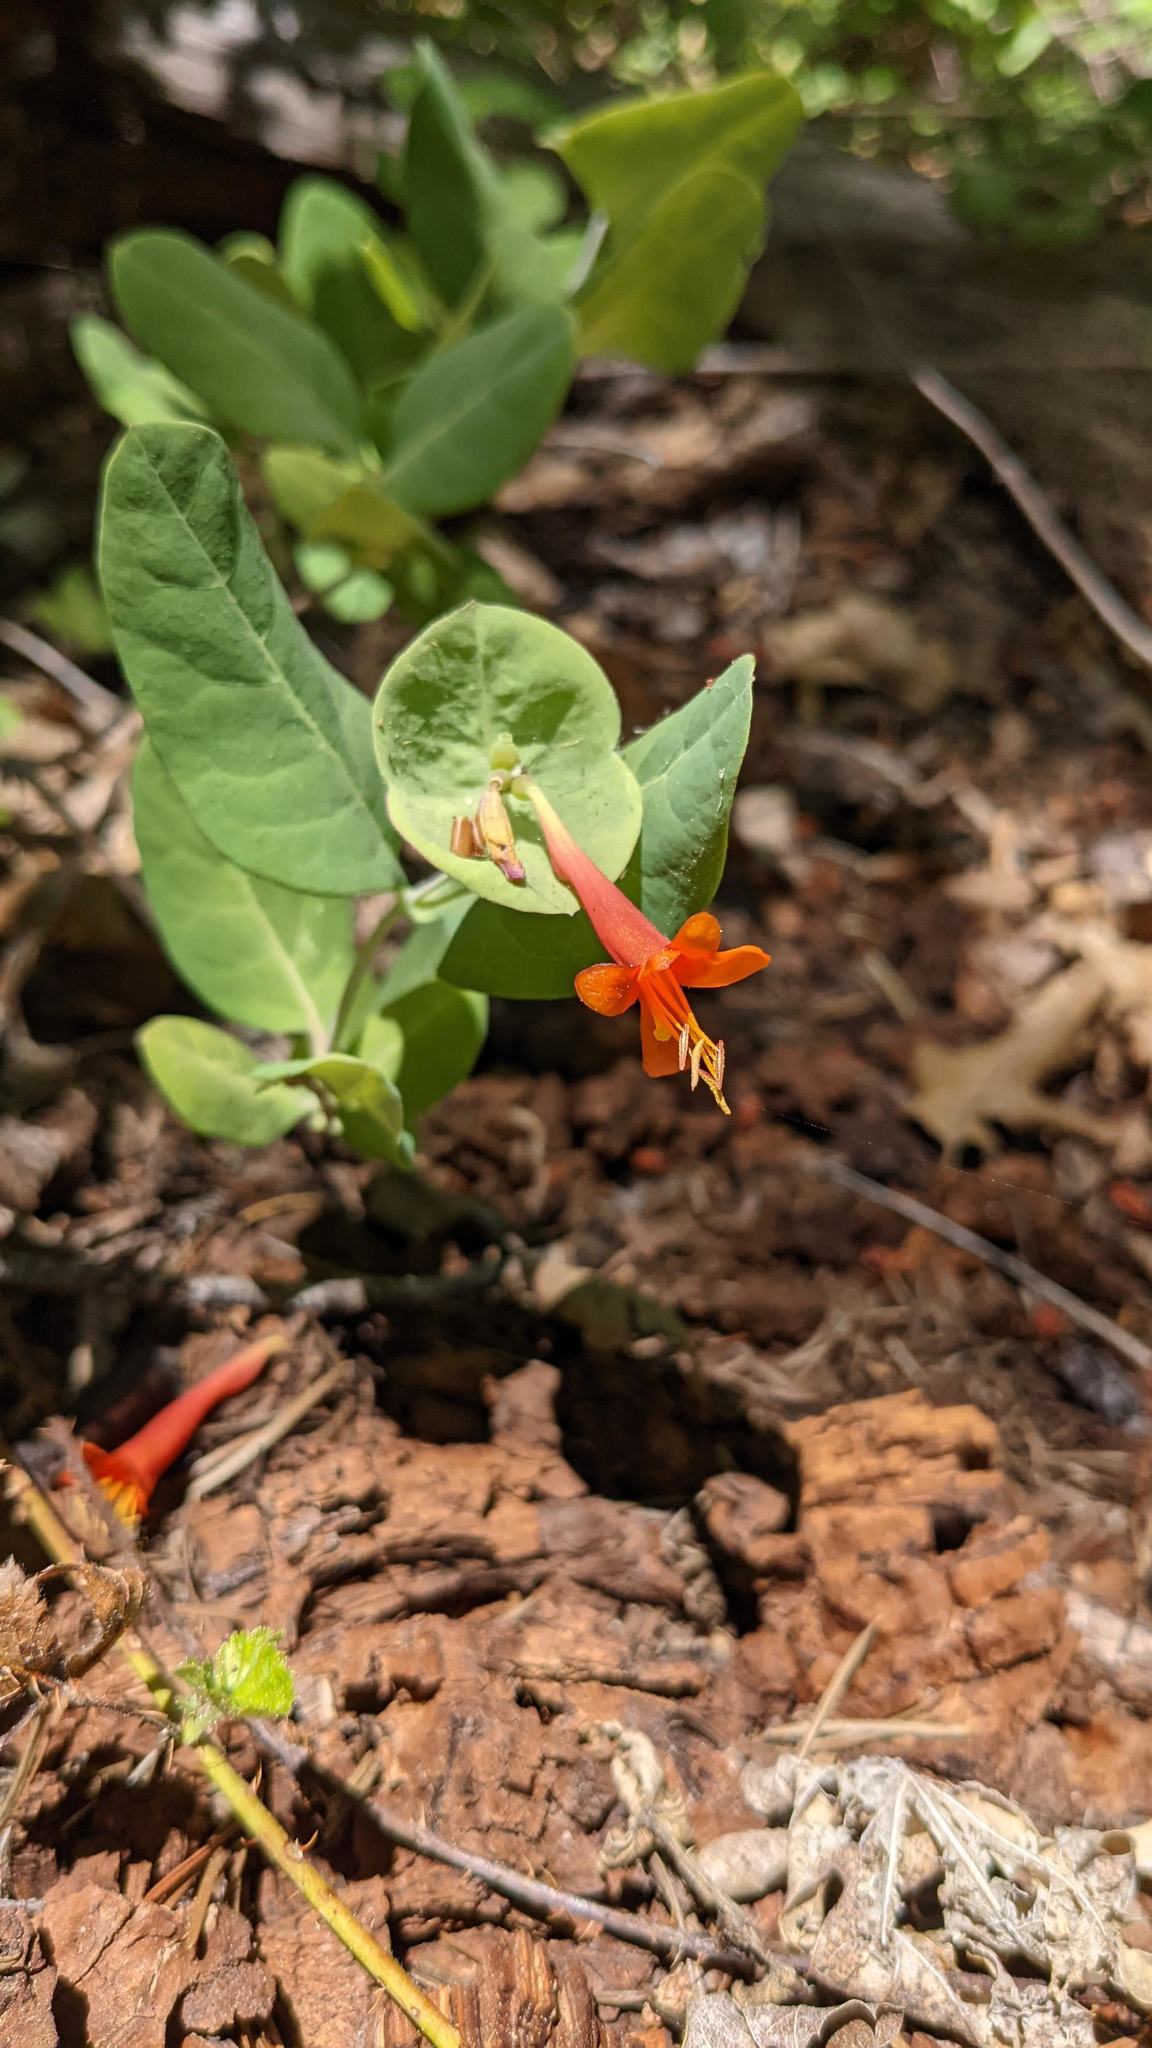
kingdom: Plantae
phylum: Tracheophyta
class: Magnoliopsida
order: Dipsacales
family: Caprifoliaceae
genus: Lonicera
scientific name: Lonicera ciliosa
